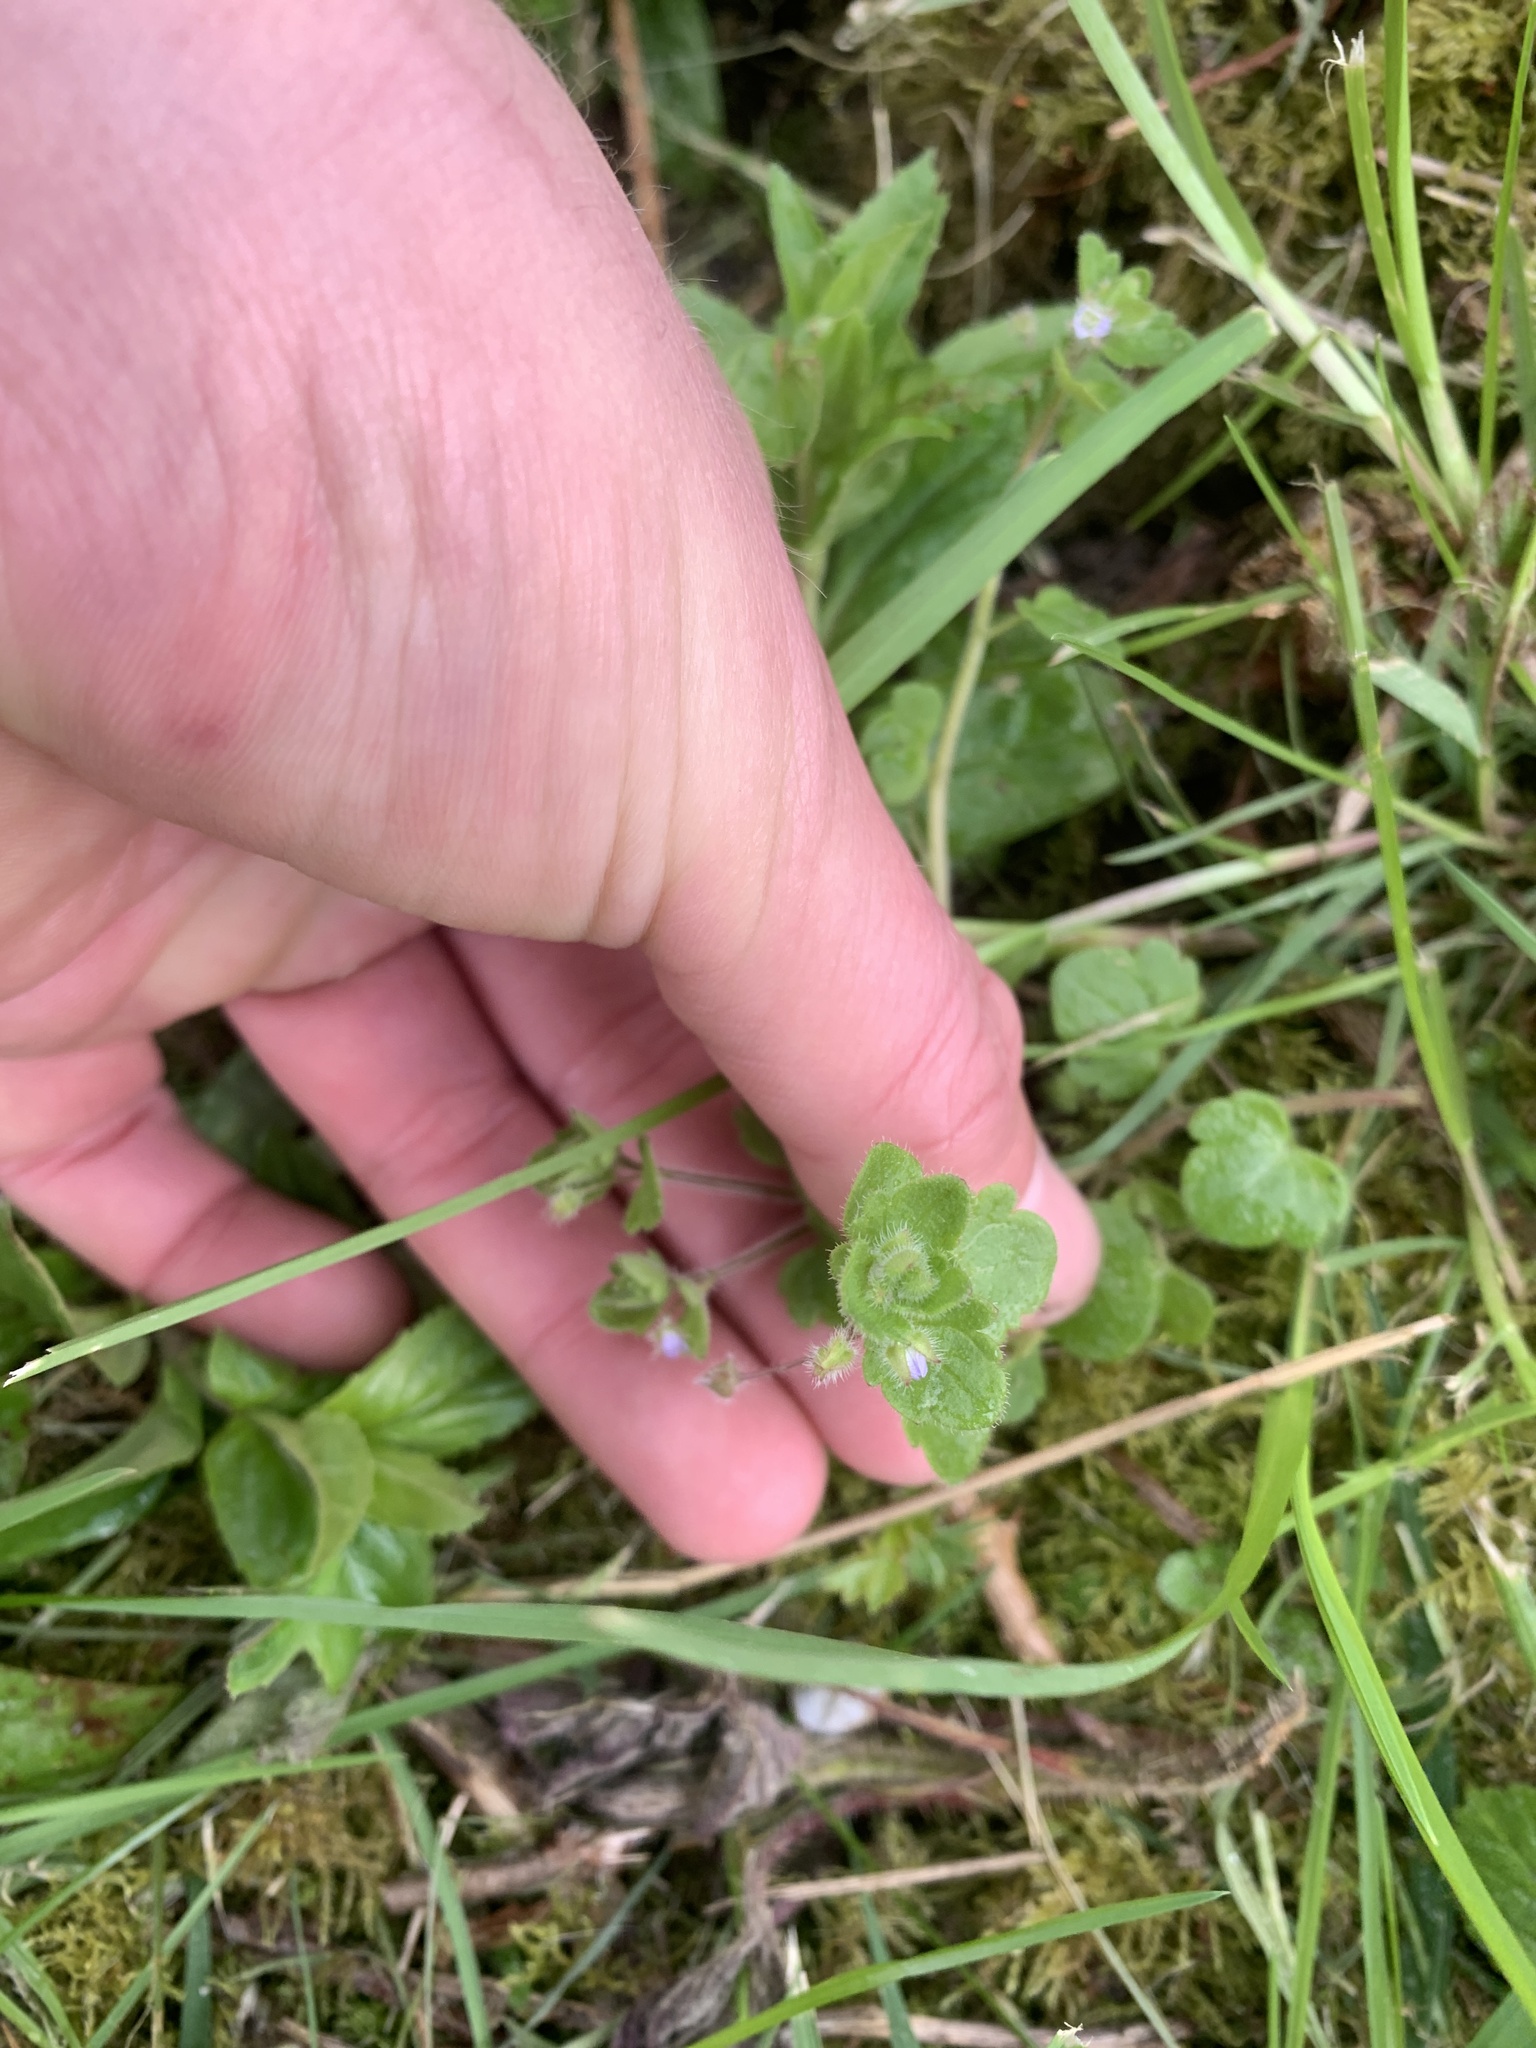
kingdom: Plantae
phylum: Tracheophyta
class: Magnoliopsida
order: Lamiales
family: Plantaginaceae
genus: Veronica
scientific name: Veronica sublobata
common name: False ivy-leaved speedwell
